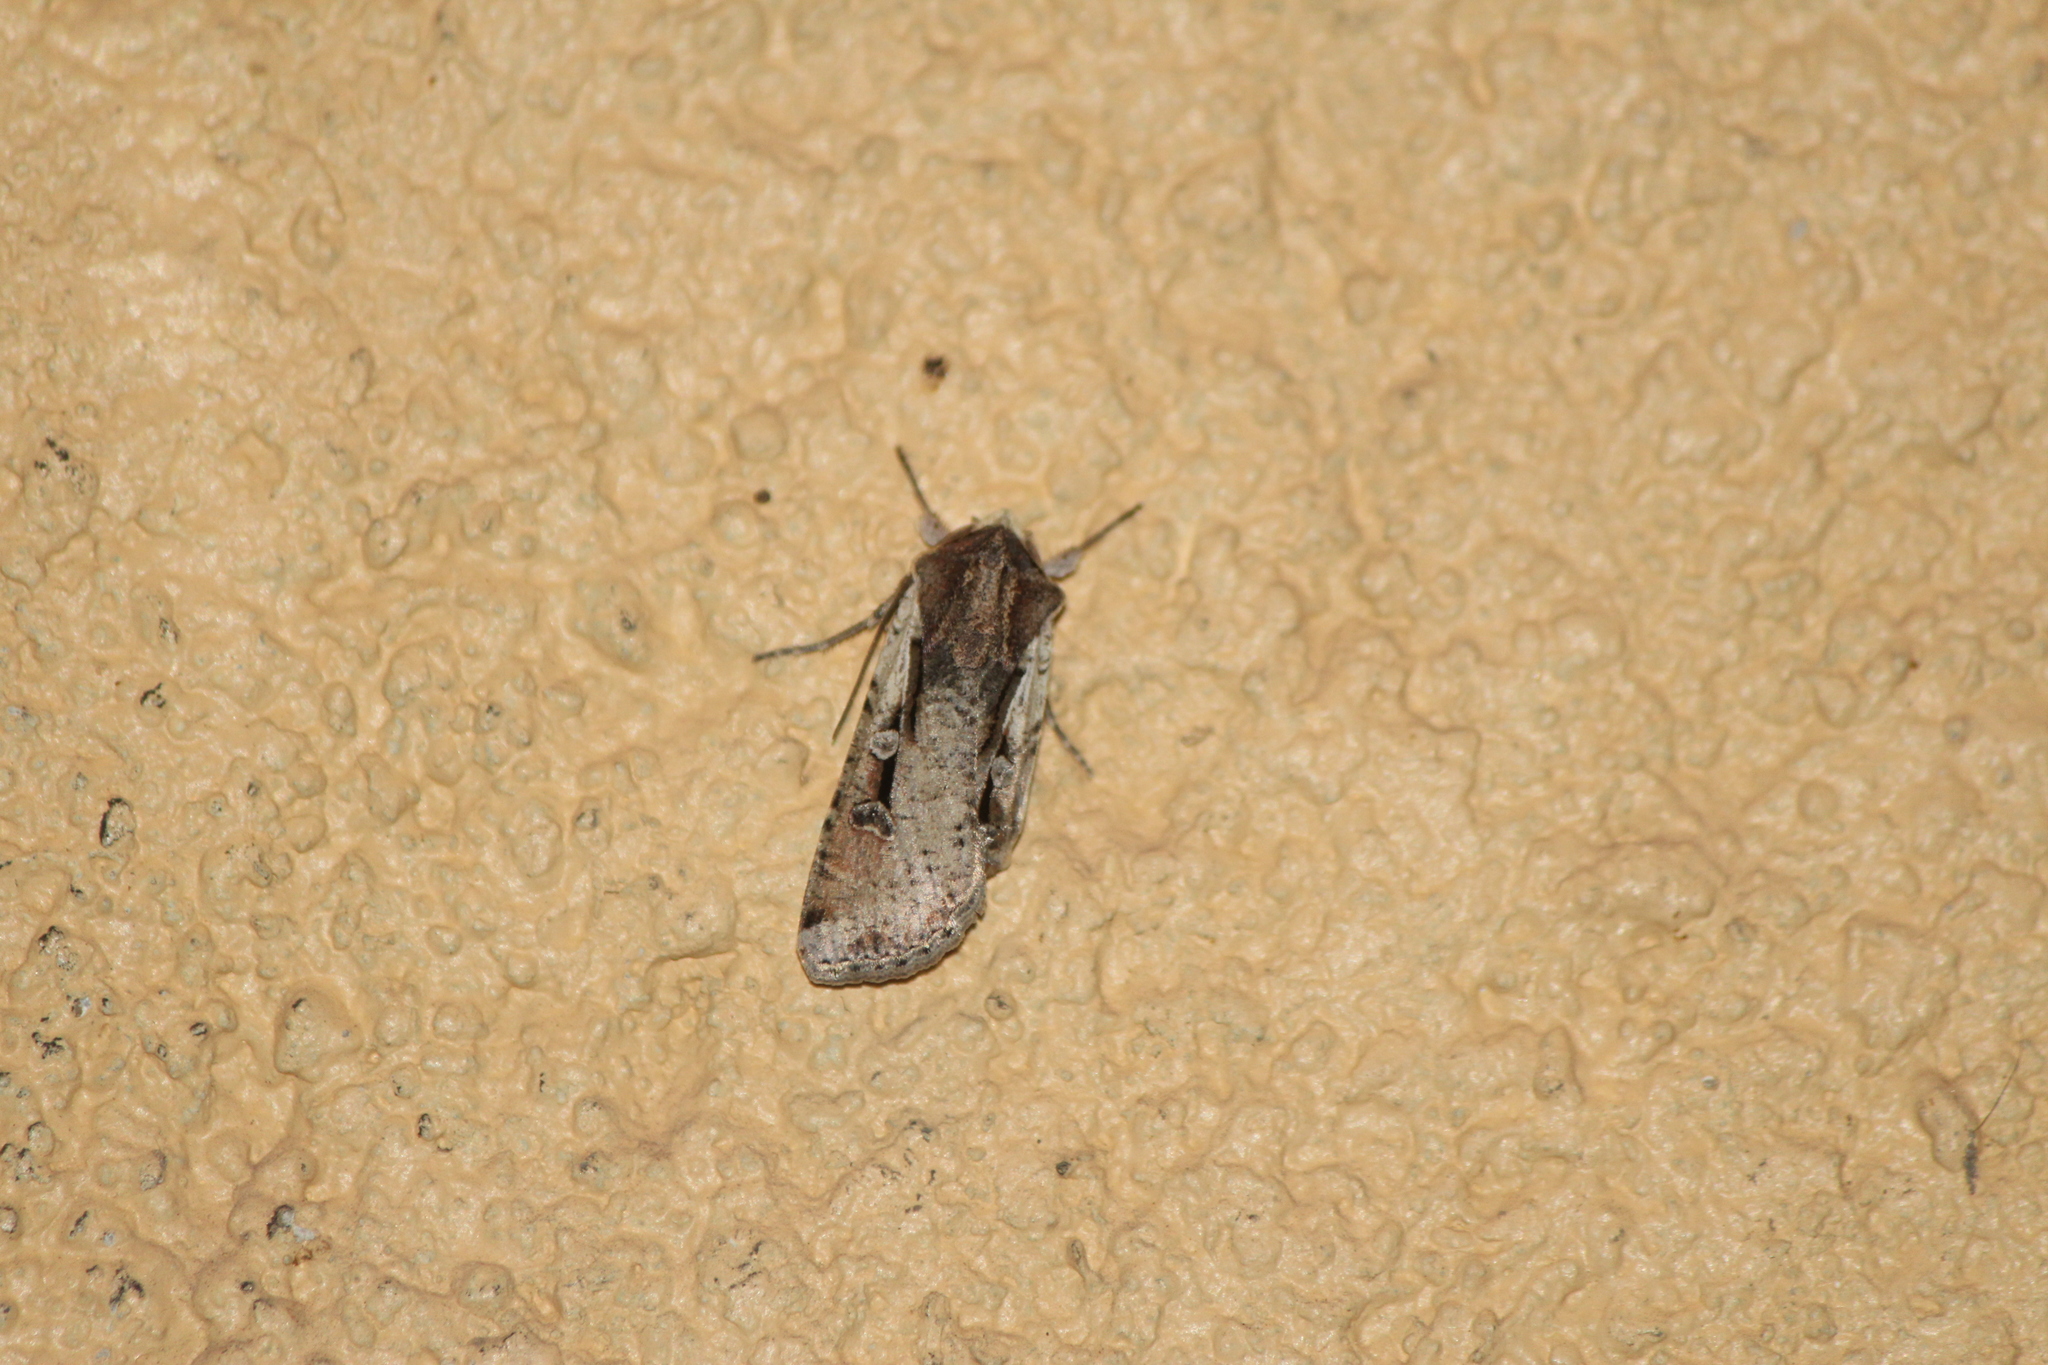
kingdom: Animalia
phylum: Arthropoda
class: Insecta
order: Lepidoptera
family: Noctuidae
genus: Hemieuxoa
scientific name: Hemieuxoa rudens
